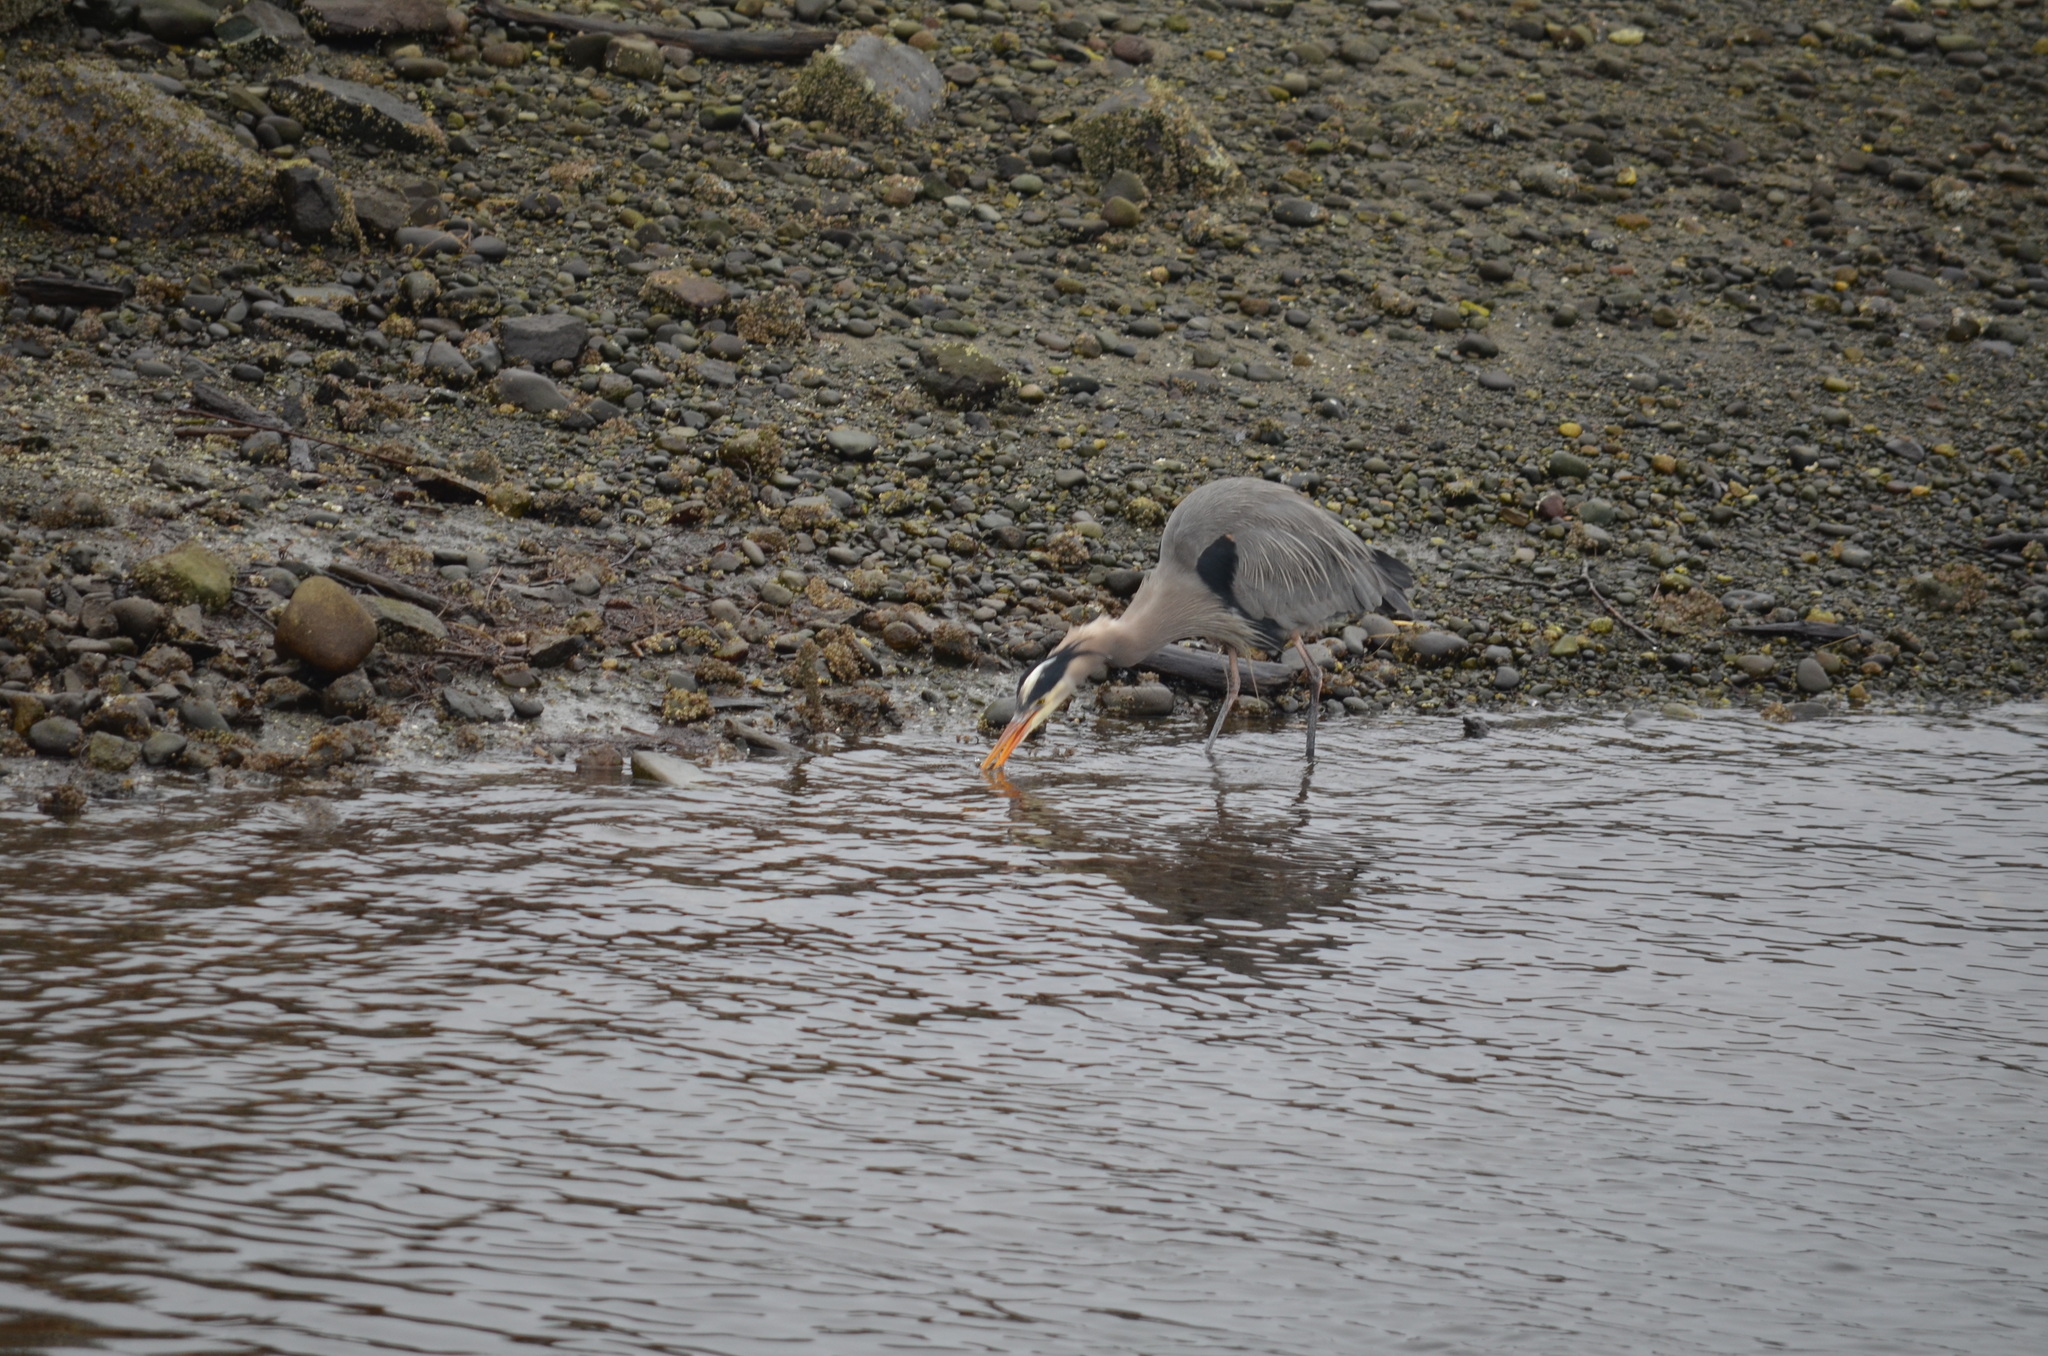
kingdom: Animalia
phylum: Chordata
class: Aves
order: Pelecaniformes
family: Ardeidae
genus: Ardea
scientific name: Ardea herodias
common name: Great blue heron
